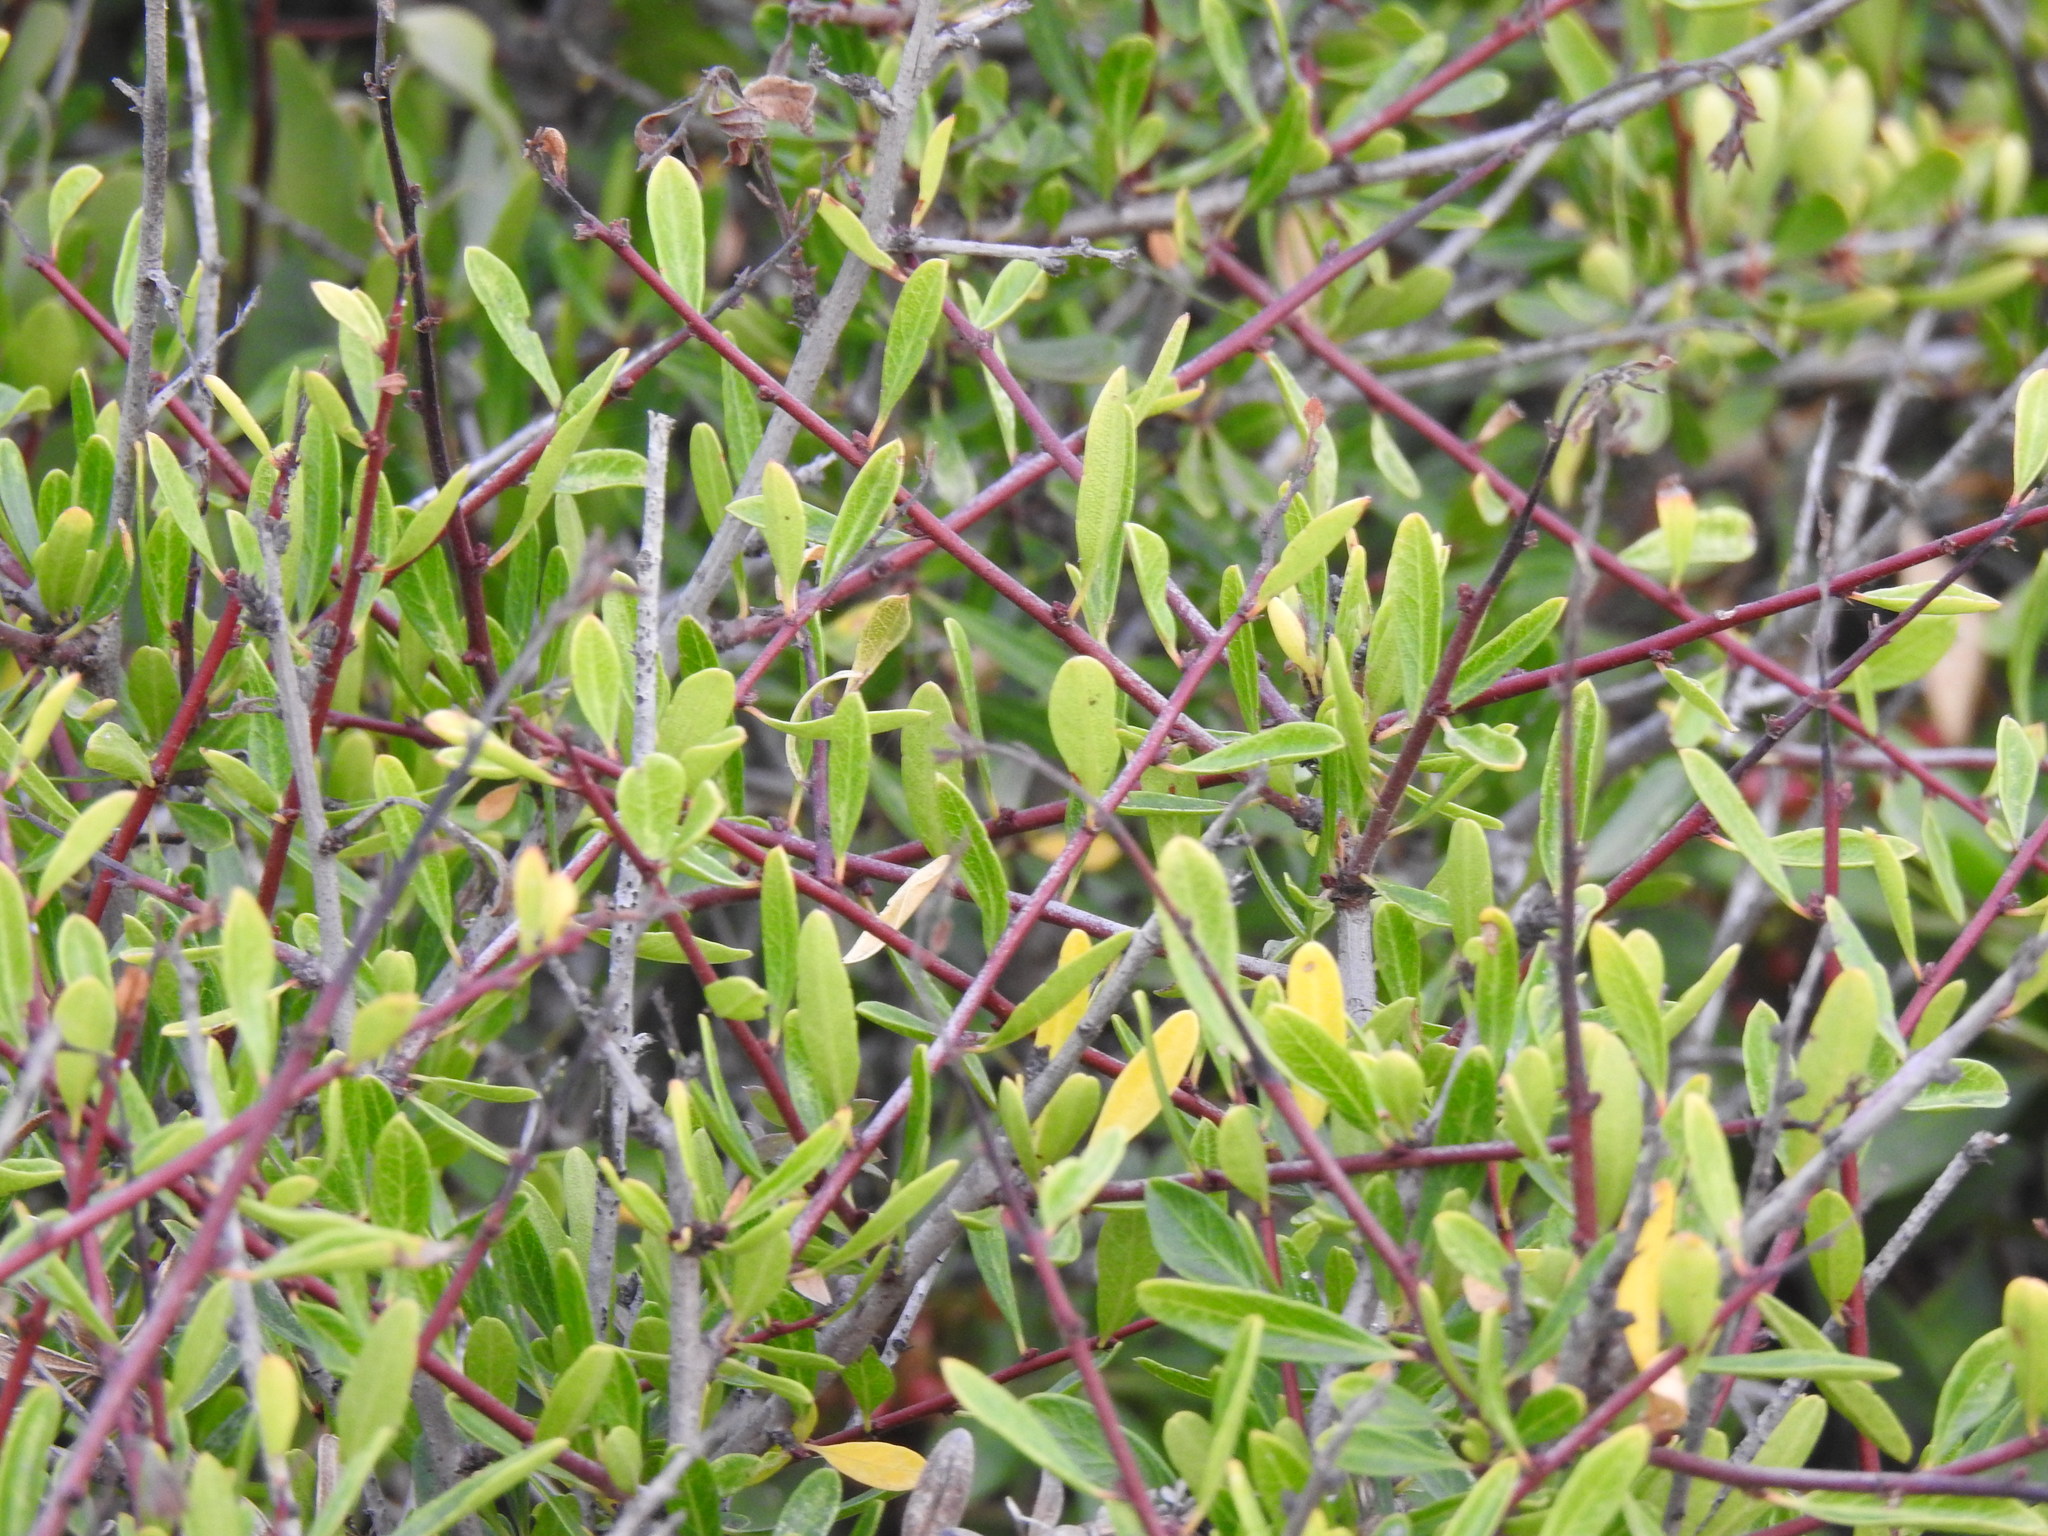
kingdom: Plantae
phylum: Tracheophyta
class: Magnoliopsida
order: Rosales
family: Rhamnaceae
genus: Rhamnus
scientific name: Rhamnus oleoides
